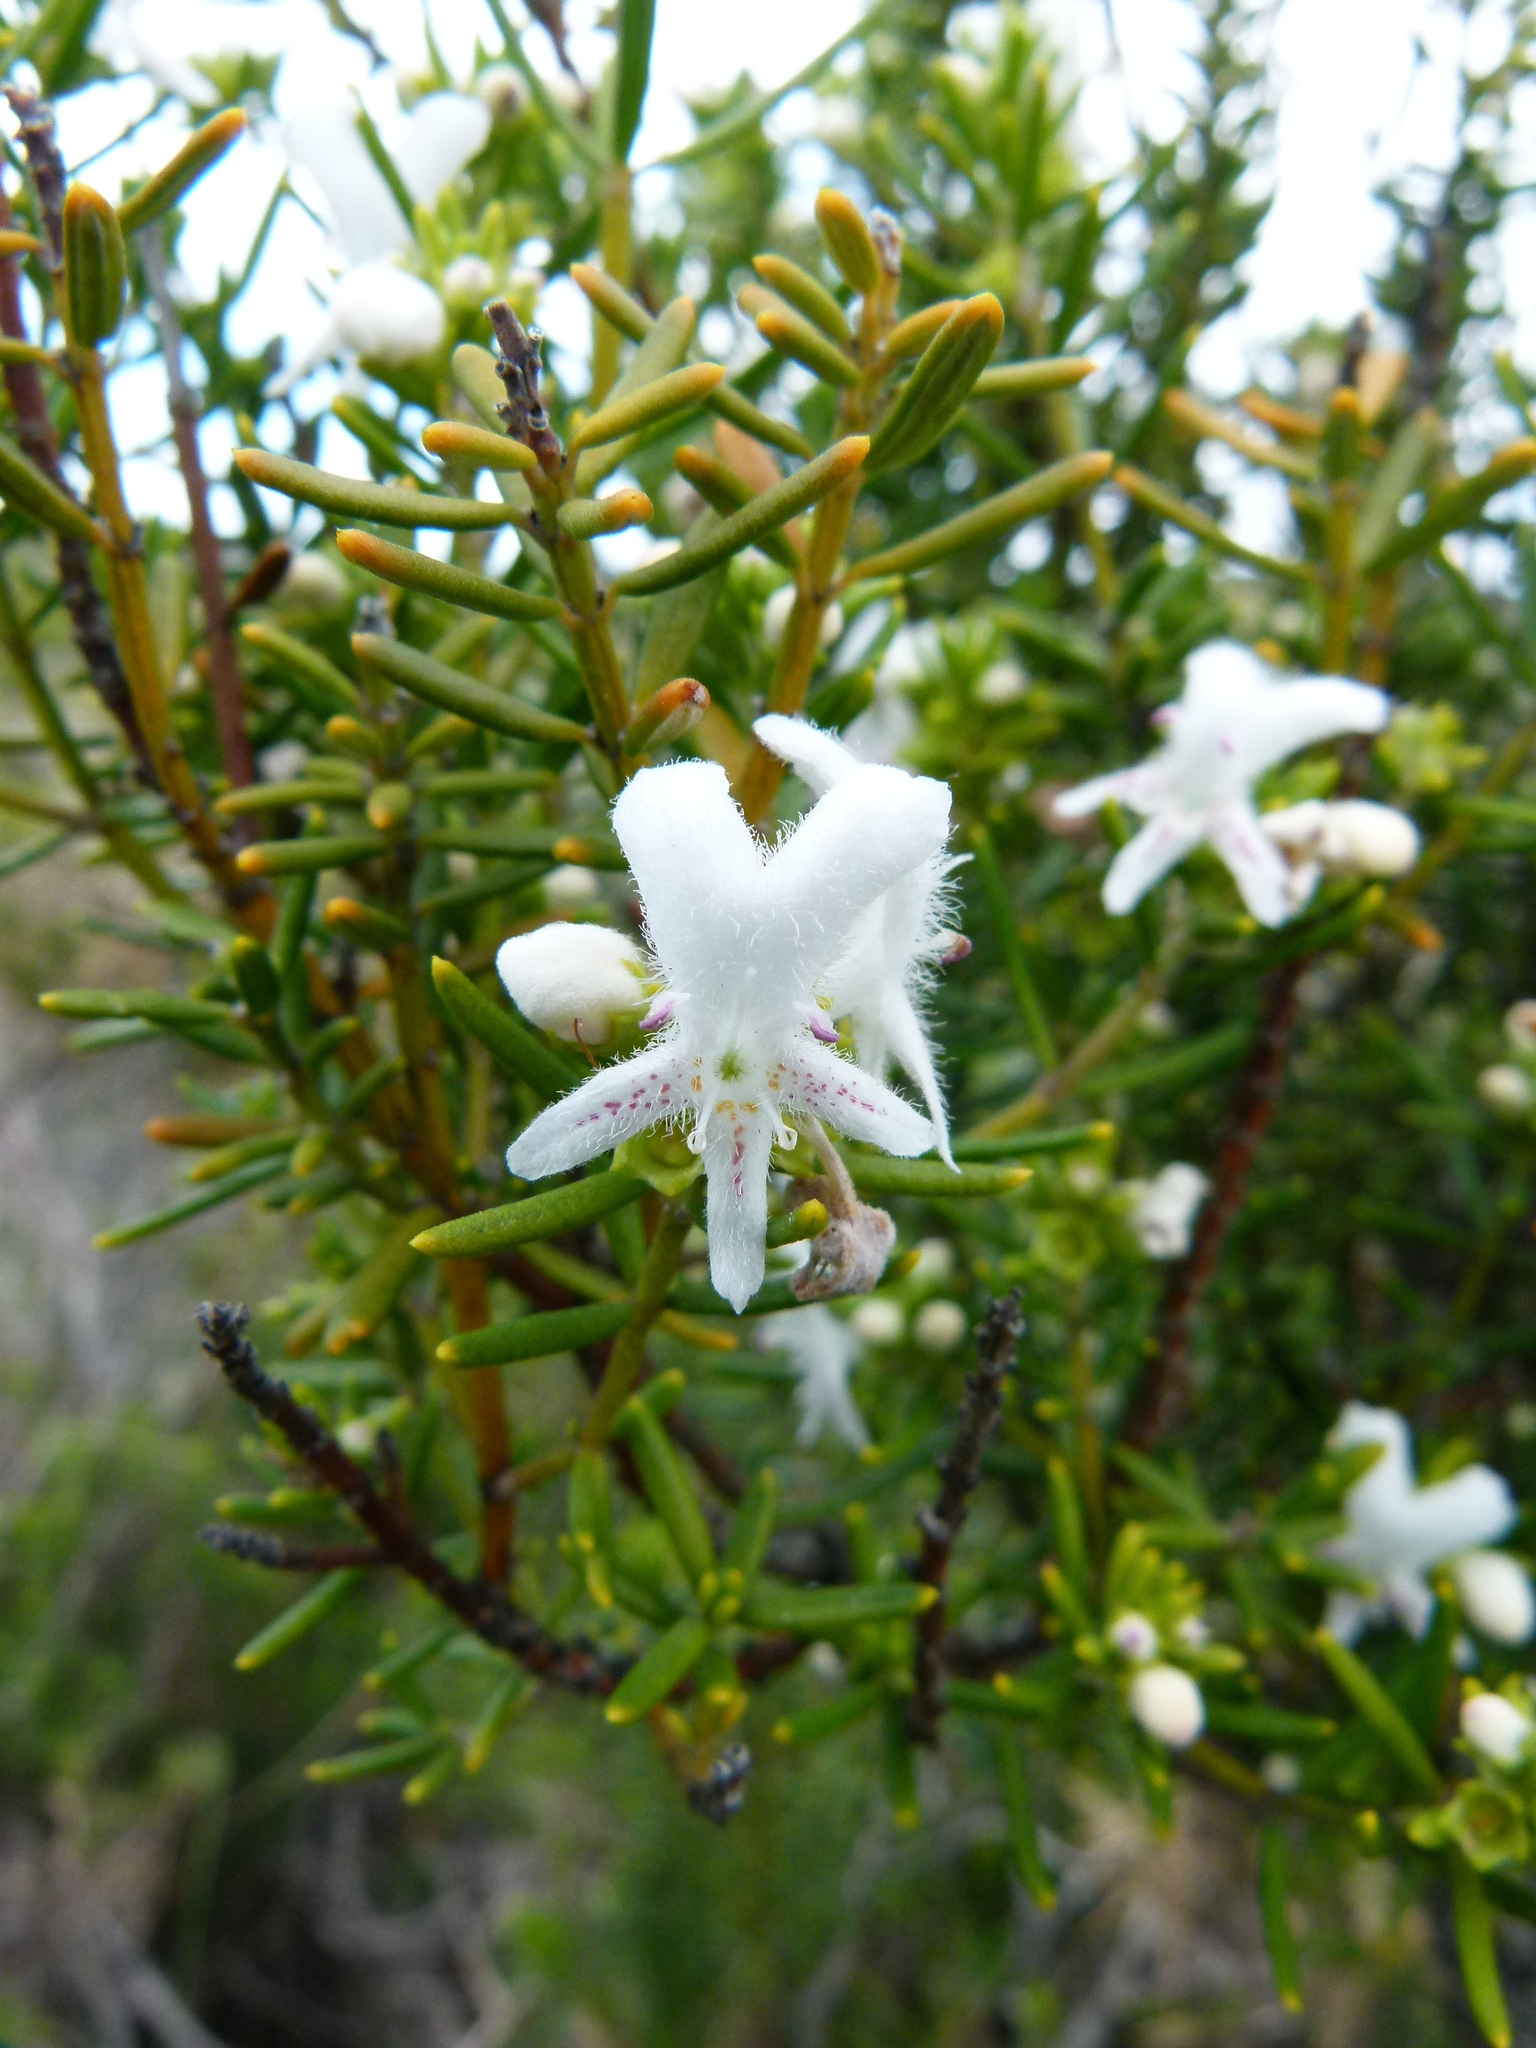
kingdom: Plantae
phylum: Tracheophyta
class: Magnoliopsida
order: Lamiales
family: Lamiaceae
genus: Westringia
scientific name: Westringia dampieri
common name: Shore westringia
